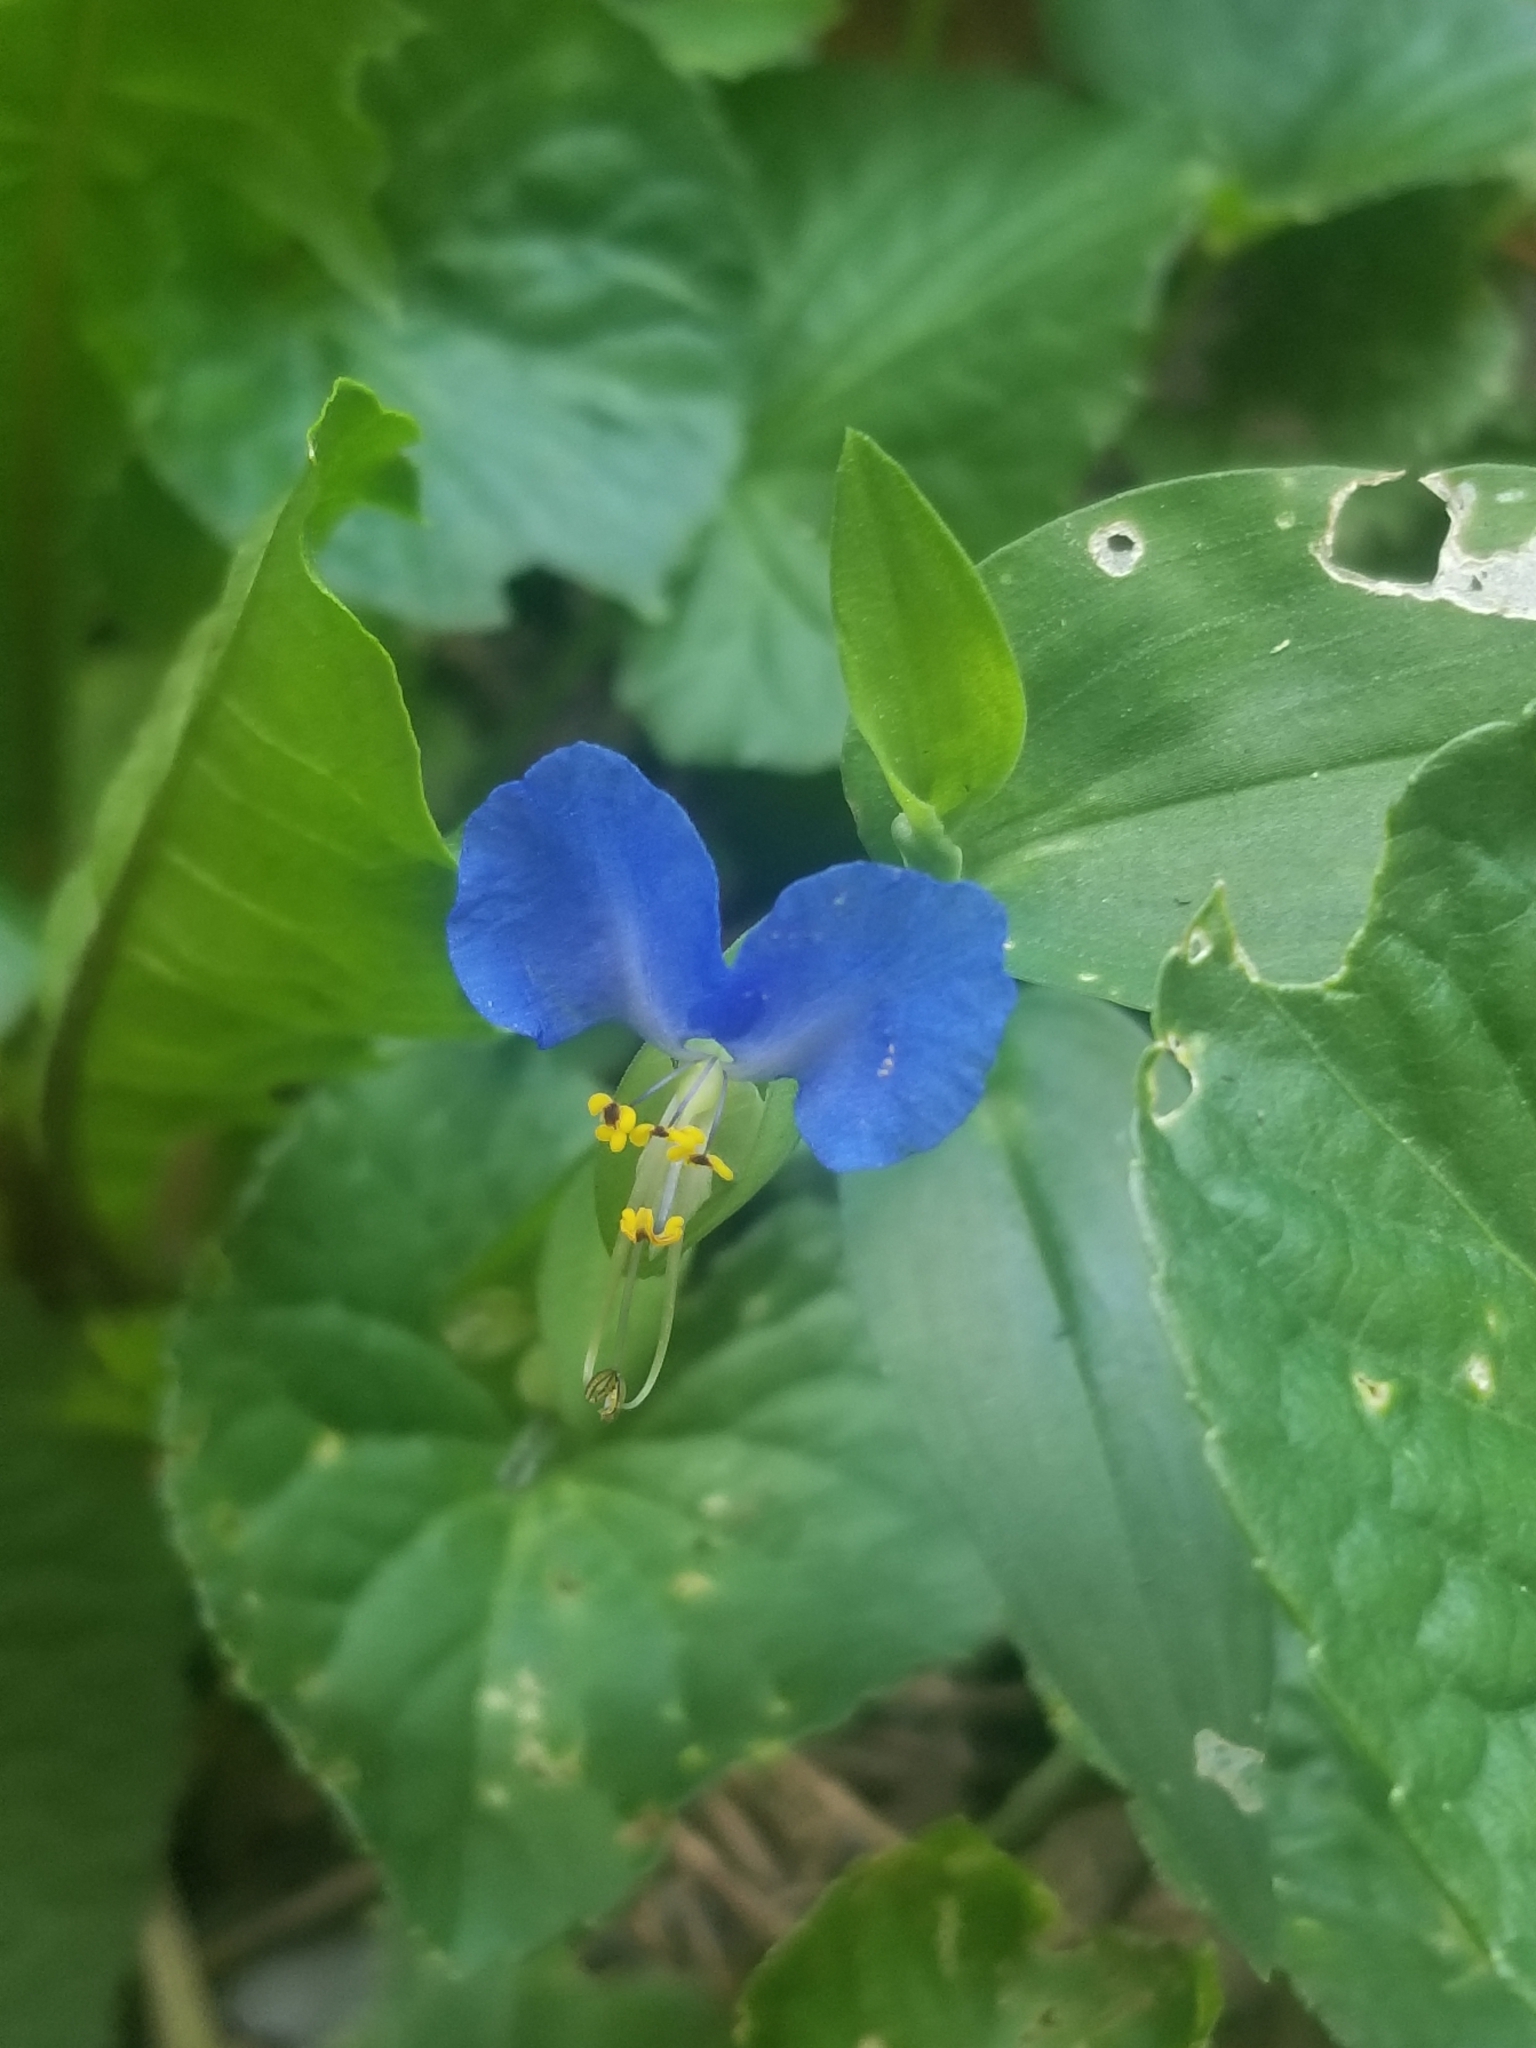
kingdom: Plantae
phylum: Tracheophyta
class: Liliopsida
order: Commelinales
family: Commelinaceae
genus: Commelina
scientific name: Commelina communis
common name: Asiatic dayflower
